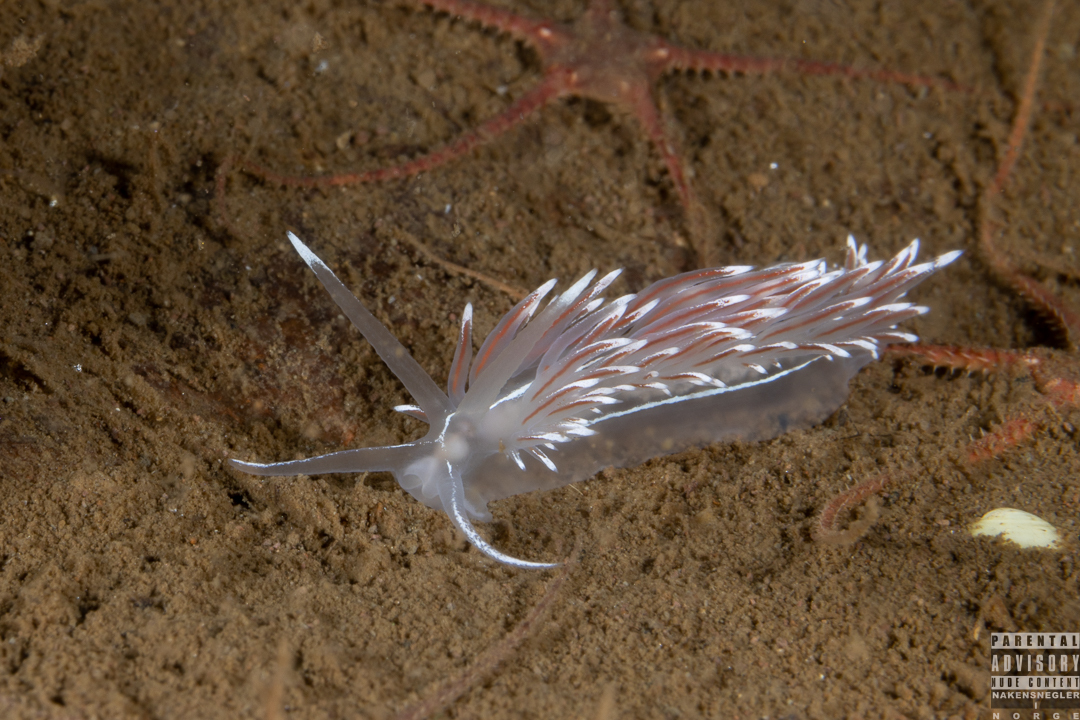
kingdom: Animalia
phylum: Mollusca
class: Gastropoda
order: Nudibranchia
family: Coryphellidae
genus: Coryphella
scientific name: Coryphella lineata
